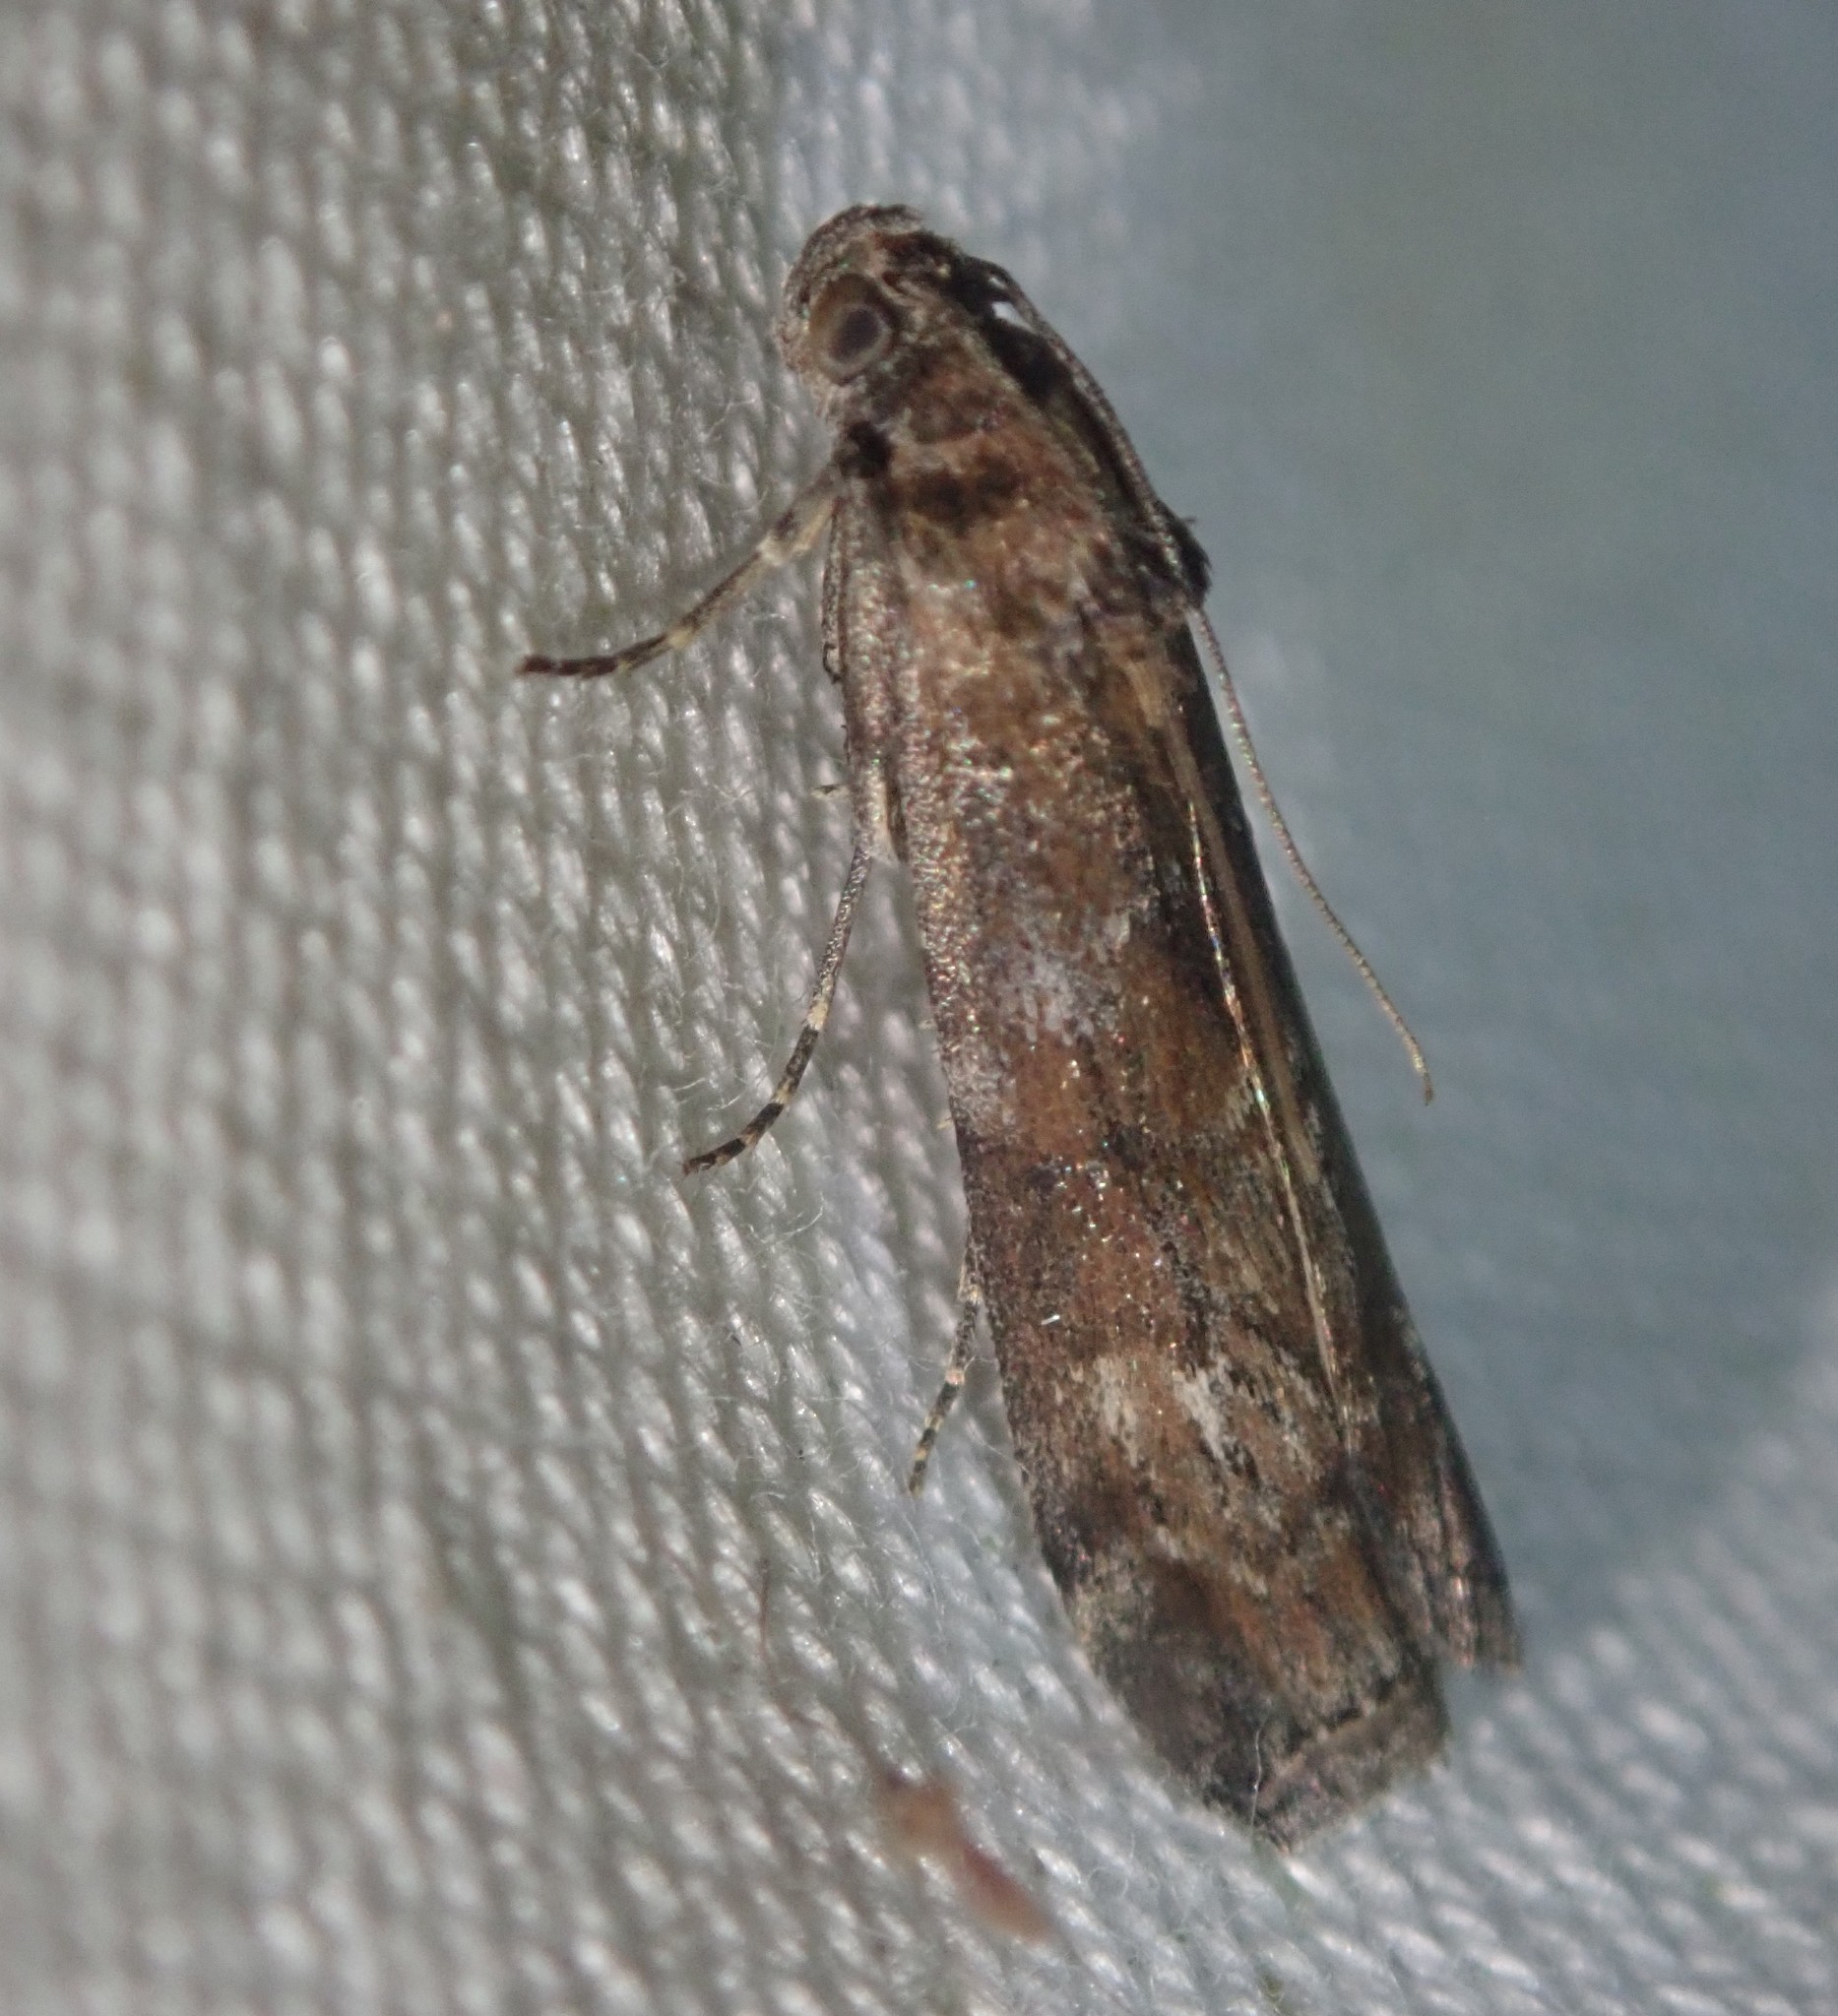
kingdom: Animalia
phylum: Arthropoda
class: Insecta
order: Lepidoptera
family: Pyralidae
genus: Phycita
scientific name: Phycita roborella
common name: Dotted oak knot-horn
